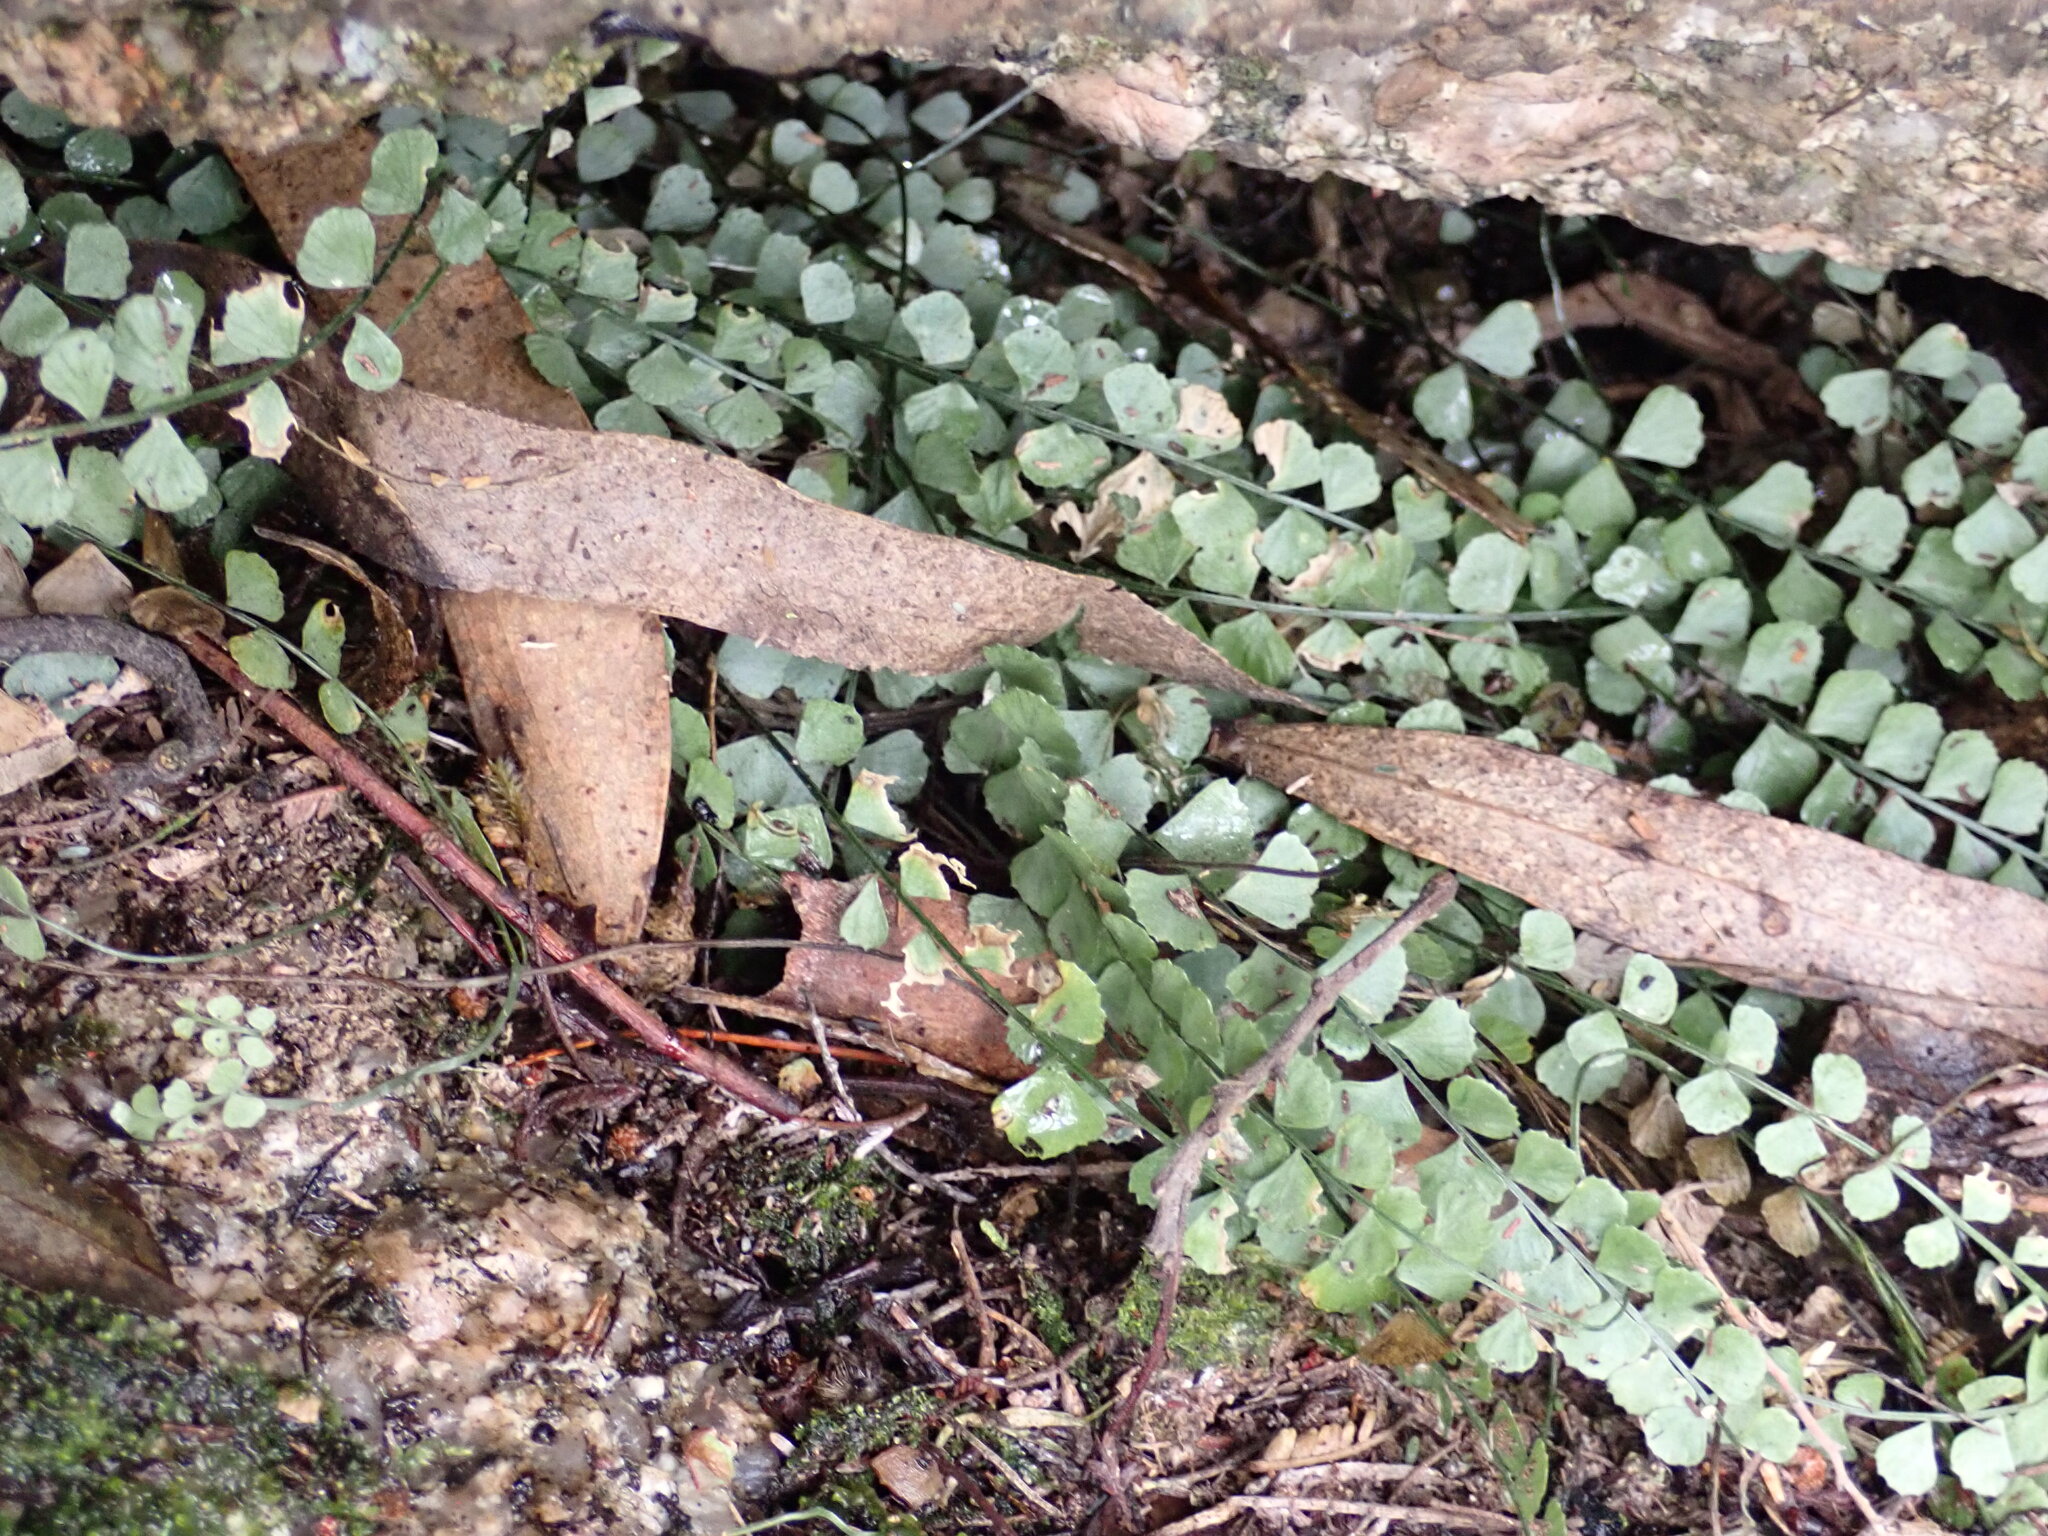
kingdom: Plantae
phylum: Tracheophyta
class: Polypodiopsida
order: Polypodiales
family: Aspleniaceae
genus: Asplenium
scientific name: Asplenium flabellifolium
